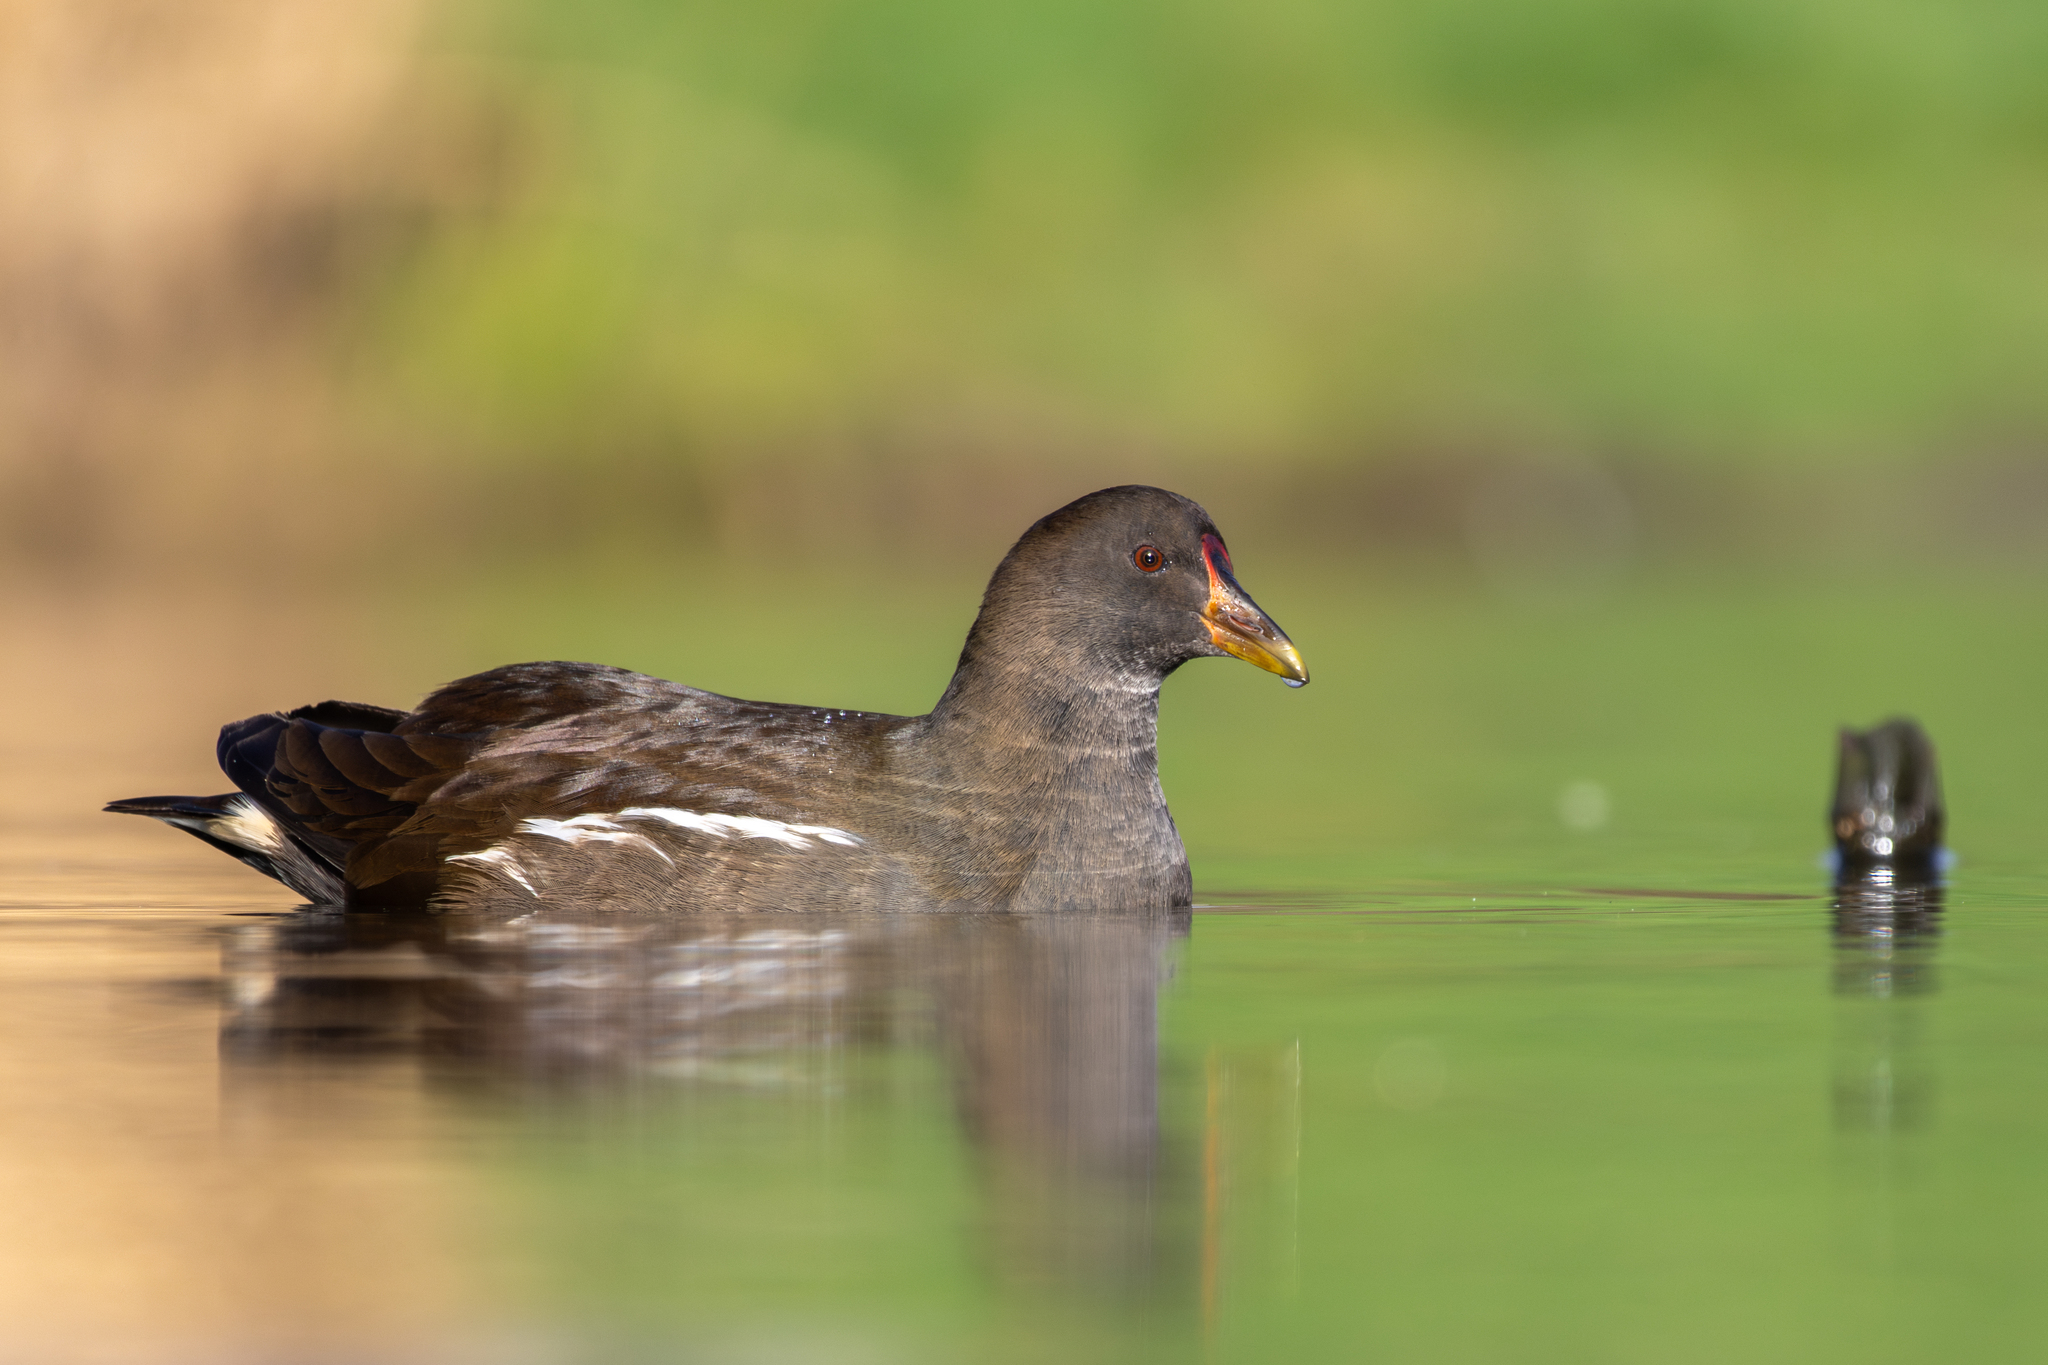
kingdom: Animalia
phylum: Chordata
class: Aves
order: Gruiformes
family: Rallidae
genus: Gallinula
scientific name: Gallinula chloropus
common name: Common moorhen
